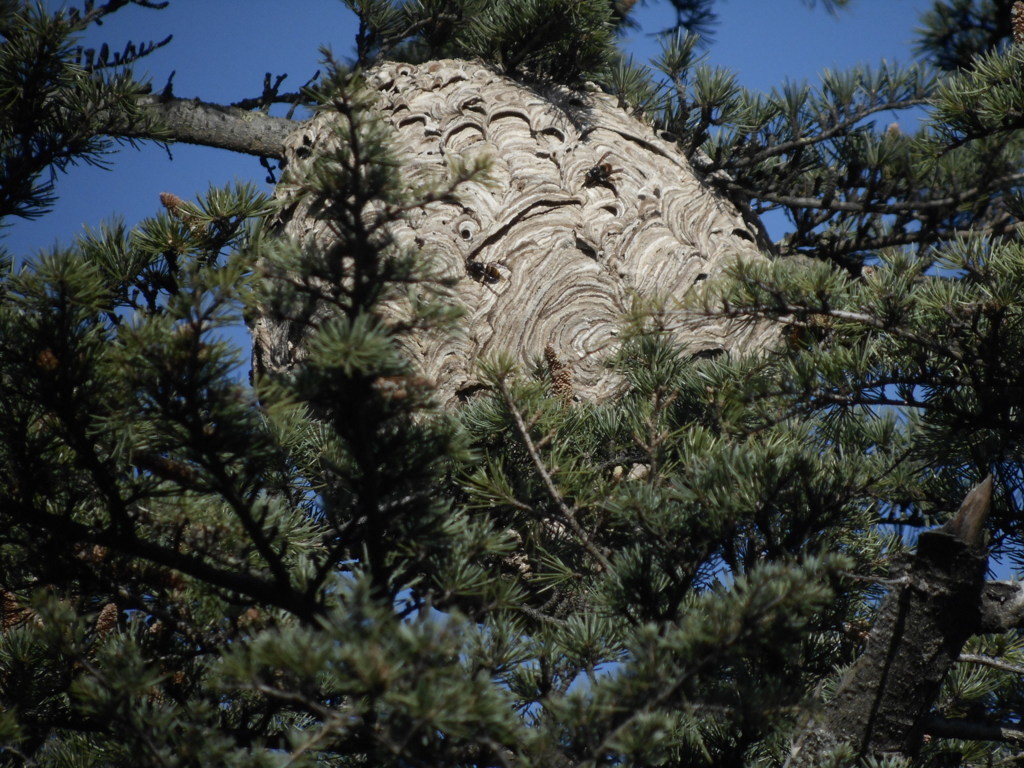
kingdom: Animalia
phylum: Arthropoda
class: Insecta
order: Hymenoptera
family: Vespidae
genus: Vespa
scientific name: Vespa velutina
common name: Asian hornet
